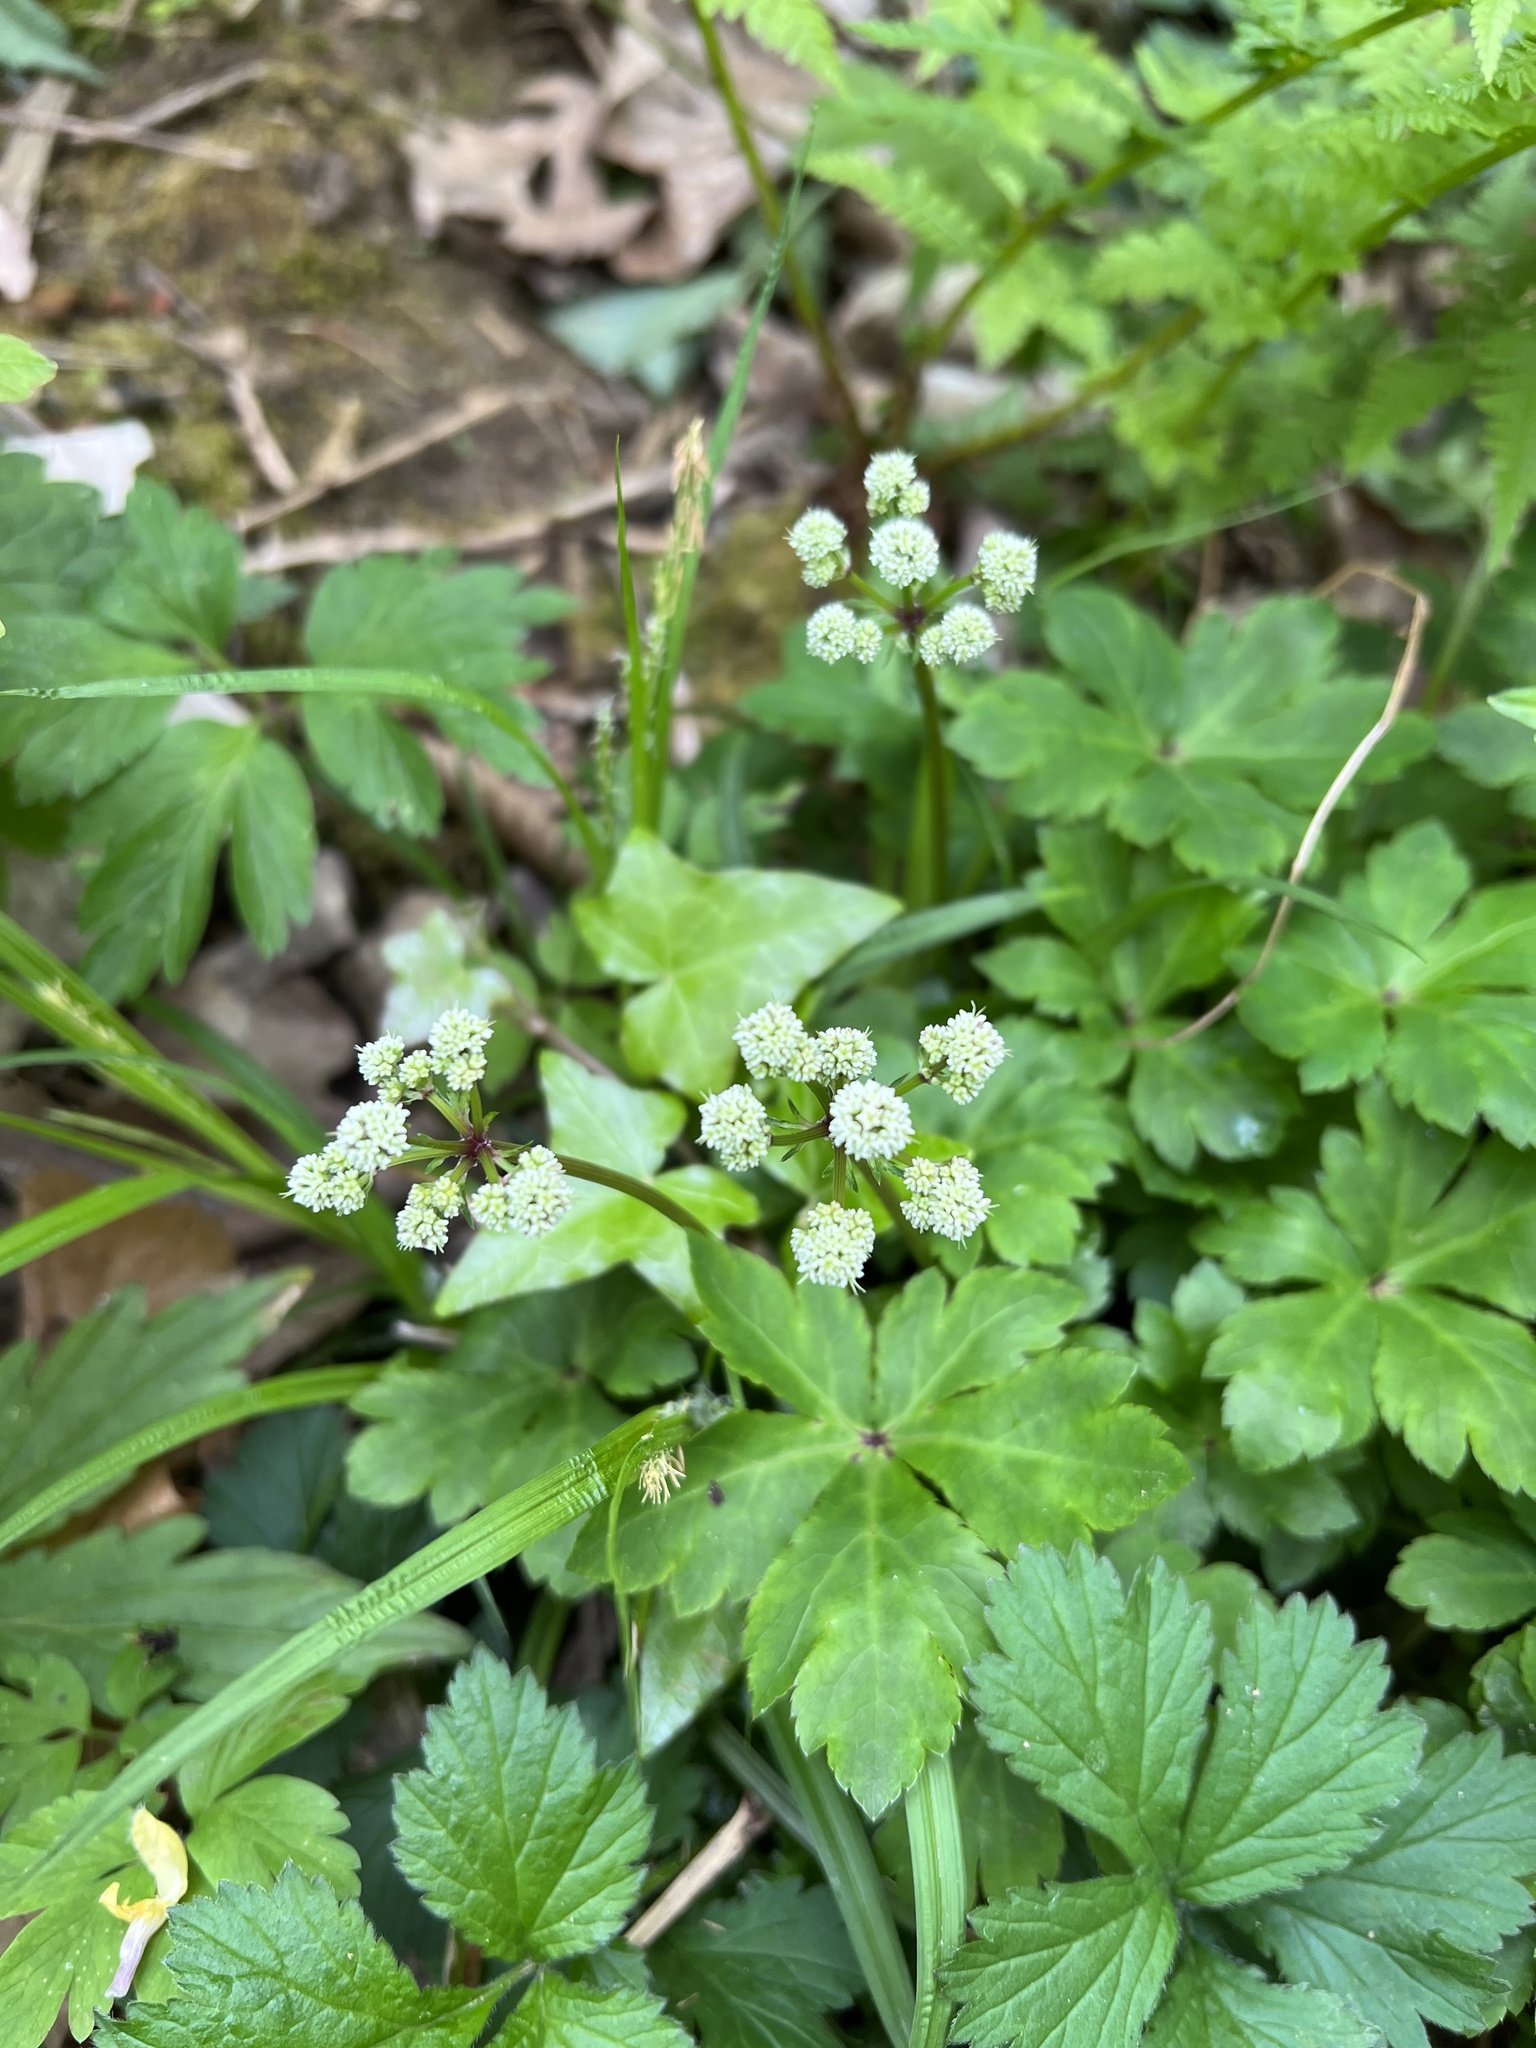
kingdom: Plantae
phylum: Tracheophyta
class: Magnoliopsida
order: Apiales
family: Apiaceae
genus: Sanicula
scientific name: Sanicula europaea
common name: Sanicle
